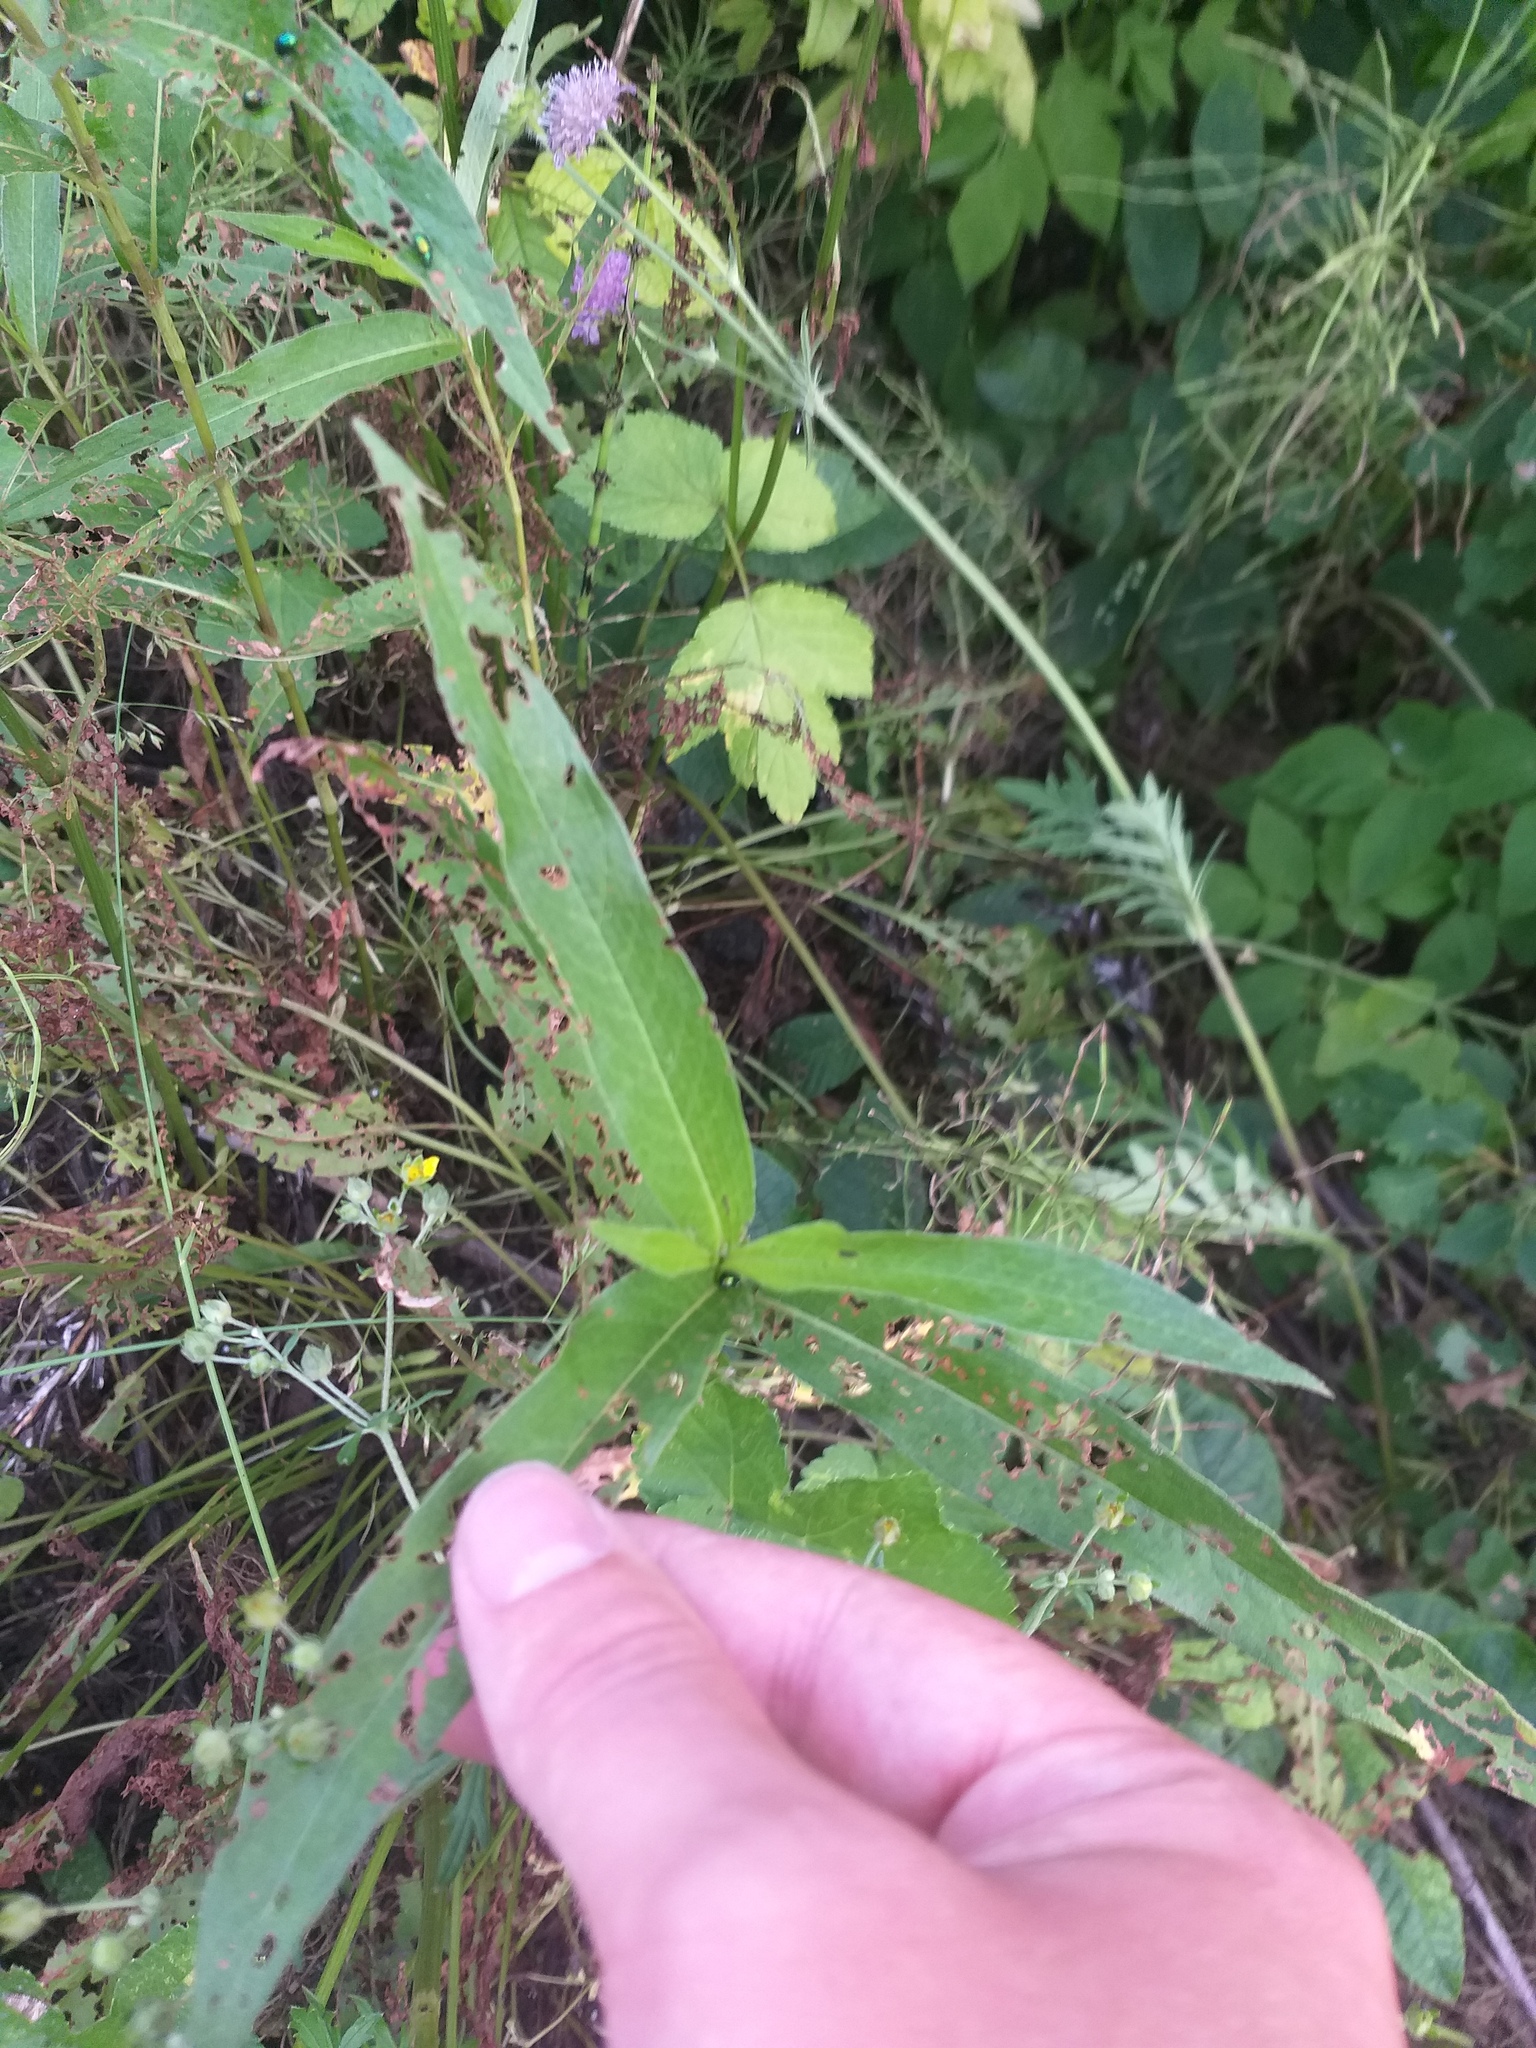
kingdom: Plantae
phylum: Tracheophyta
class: Magnoliopsida
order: Caryophyllales
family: Polygonaceae
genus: Persicaria
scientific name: Persicaria amphibia
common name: Amphibious bistort
